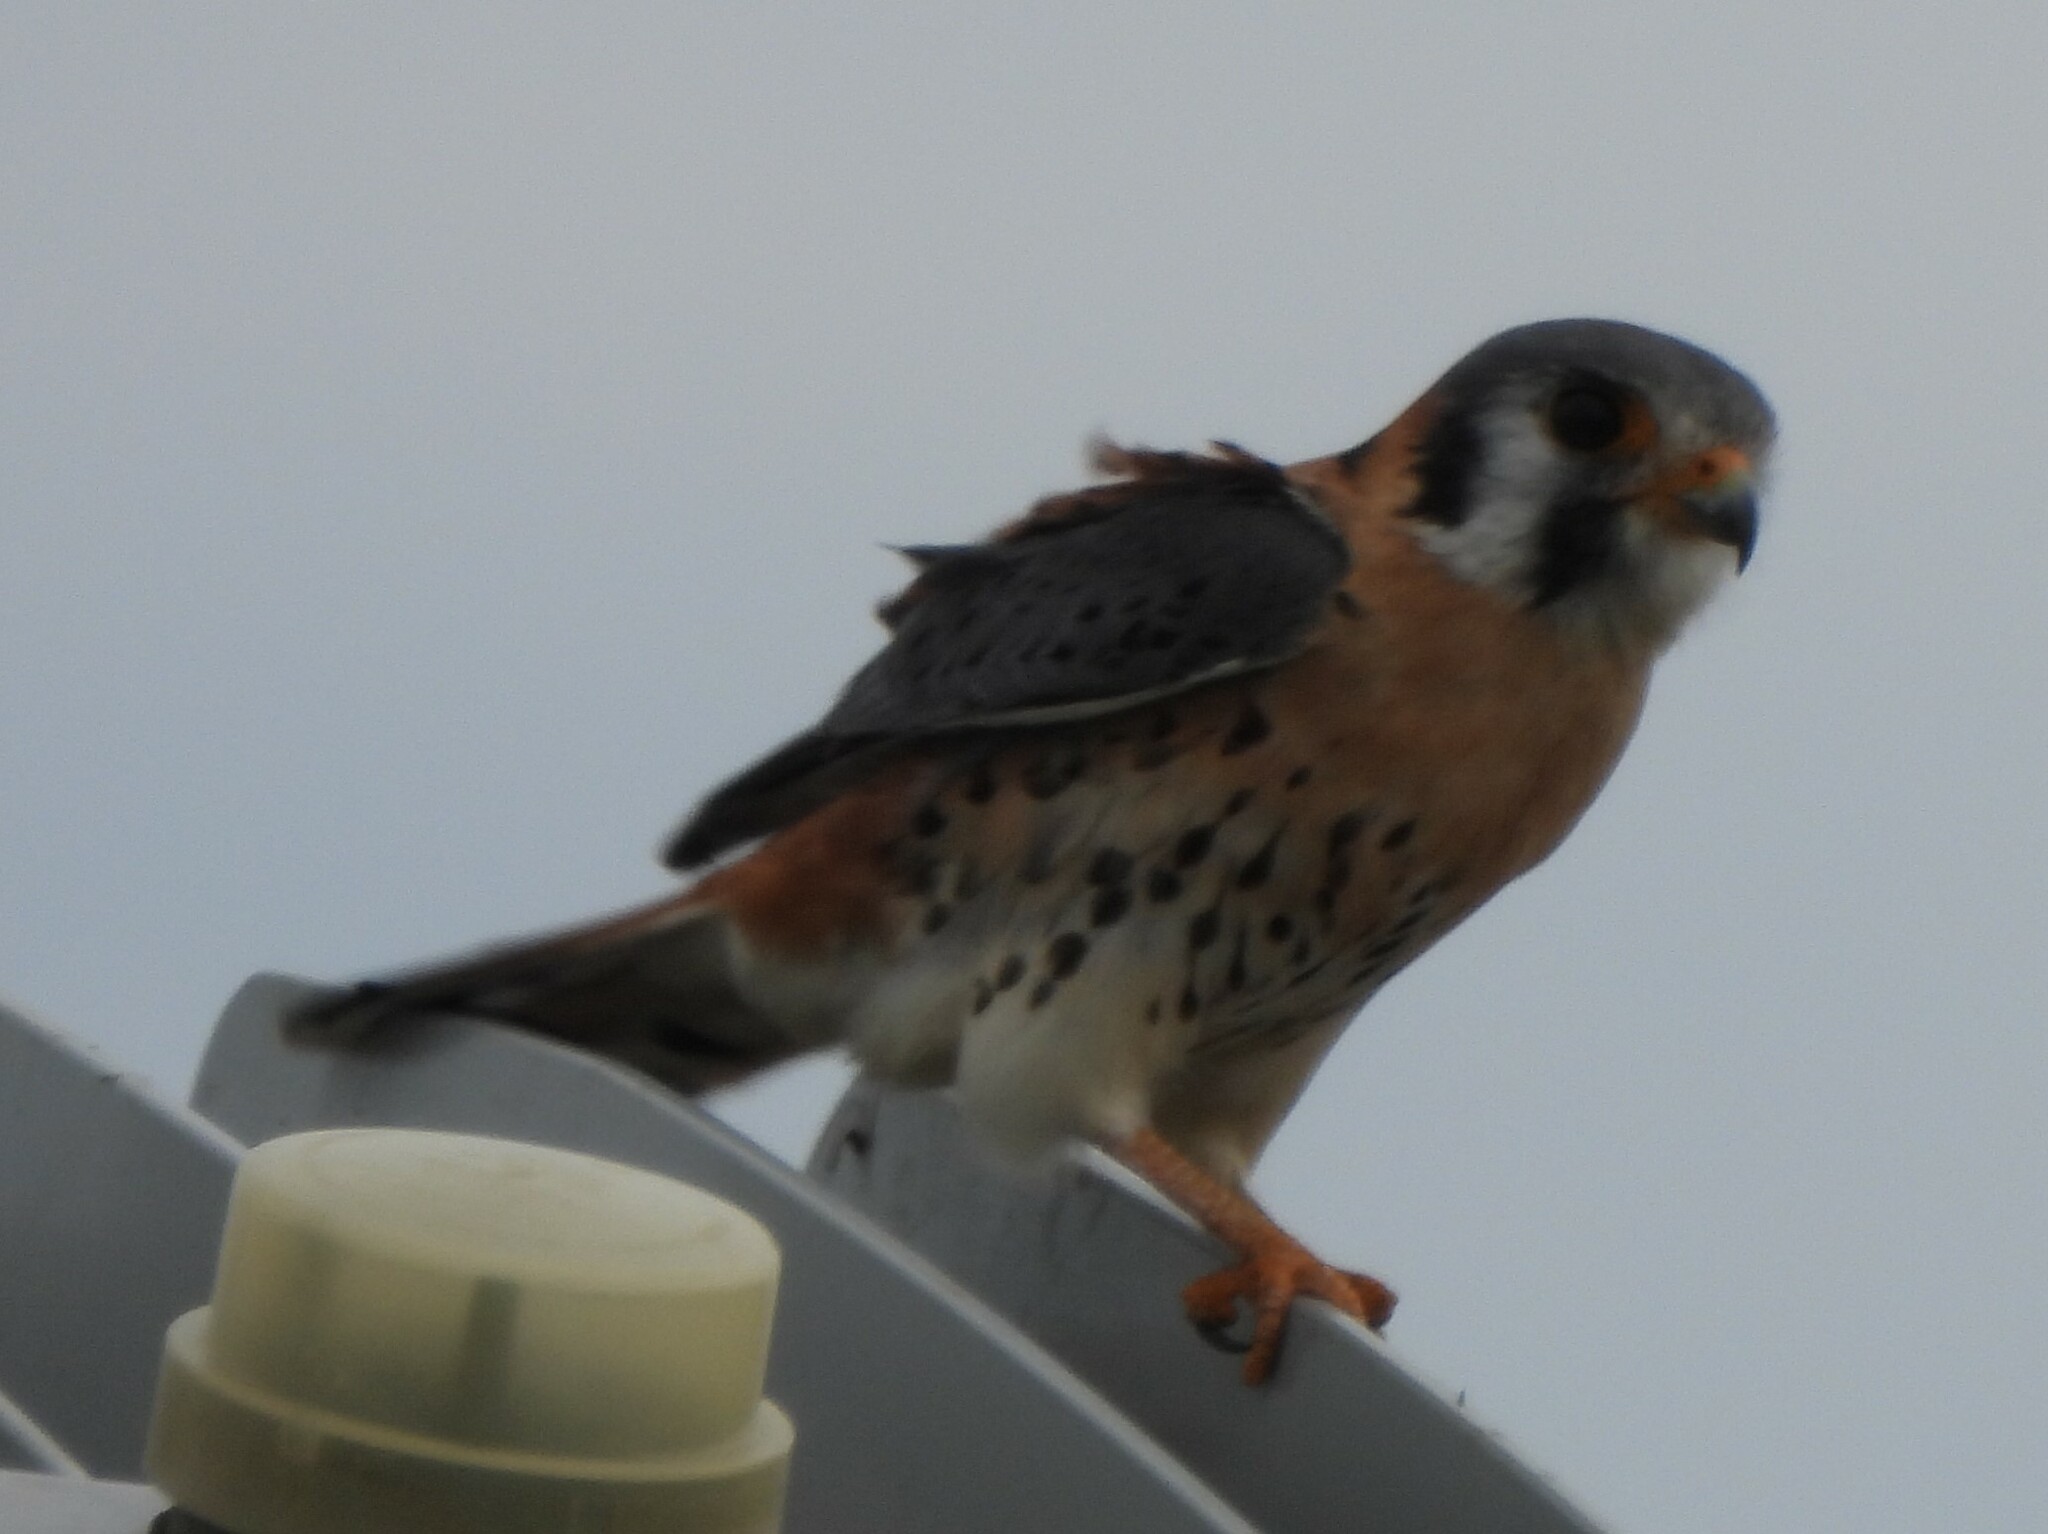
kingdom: Animalia
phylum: Chordata
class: Aves
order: Falconiformes
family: Falconidae
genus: Falco
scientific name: Falco sparverius
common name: American kestrel
